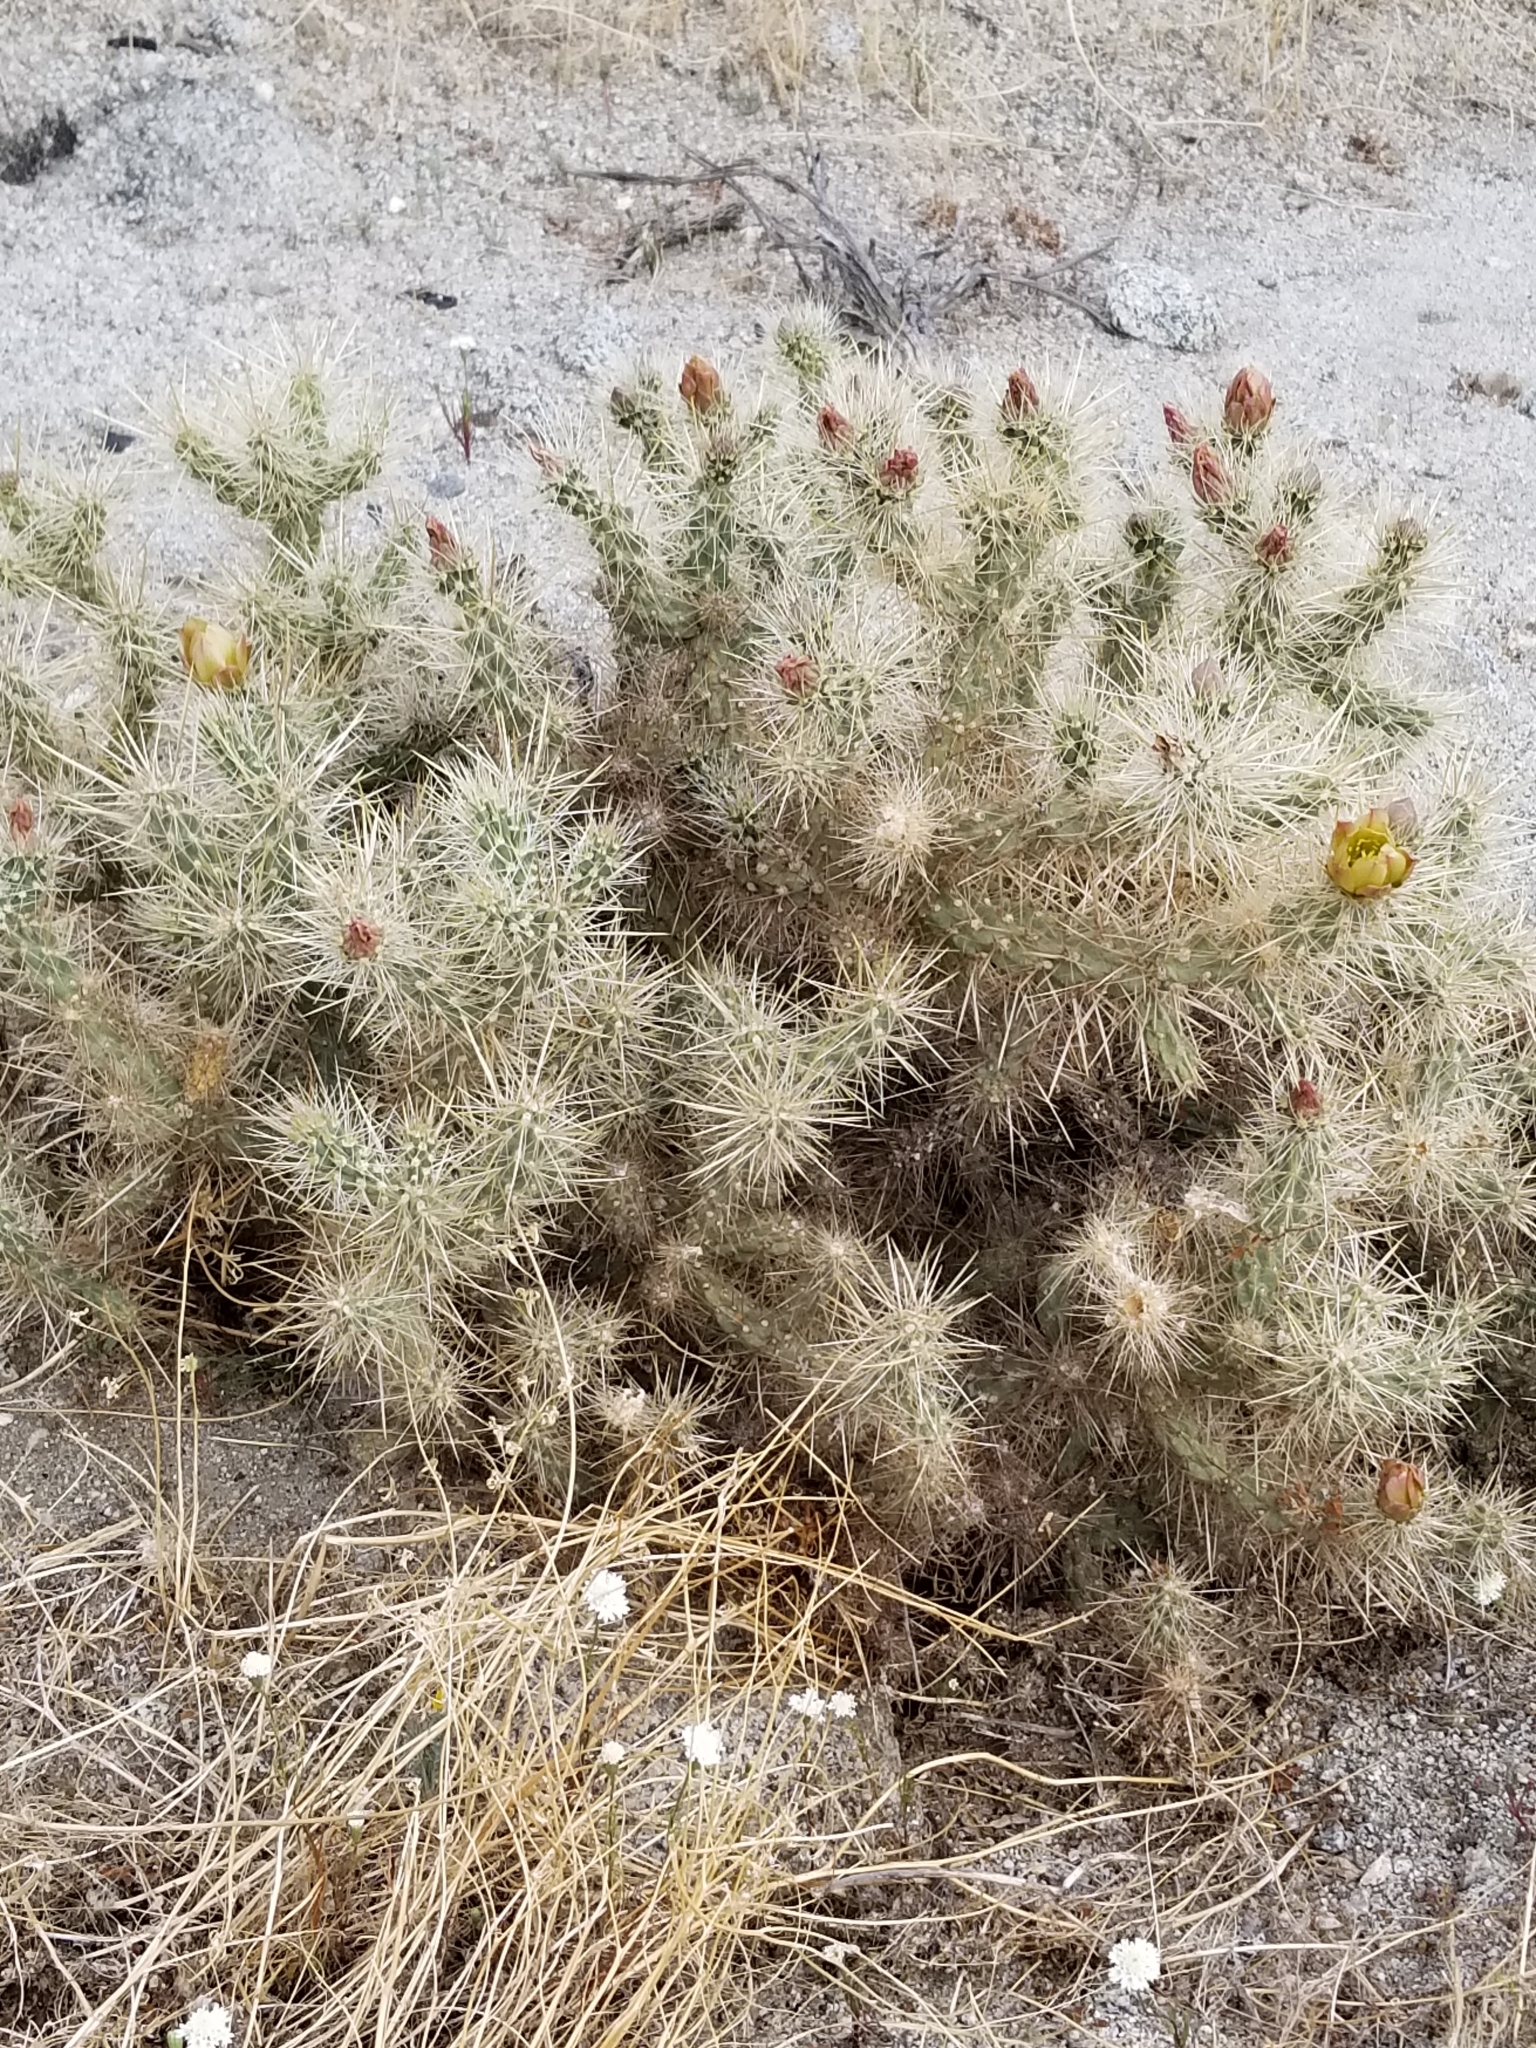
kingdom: Plantae
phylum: Tracheophyta
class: Magnoliopsida
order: Caryophyllales
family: Cactaceae
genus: Cylindropuntia
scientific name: Cylindropuntia echinocarpa
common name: Ground cholla
